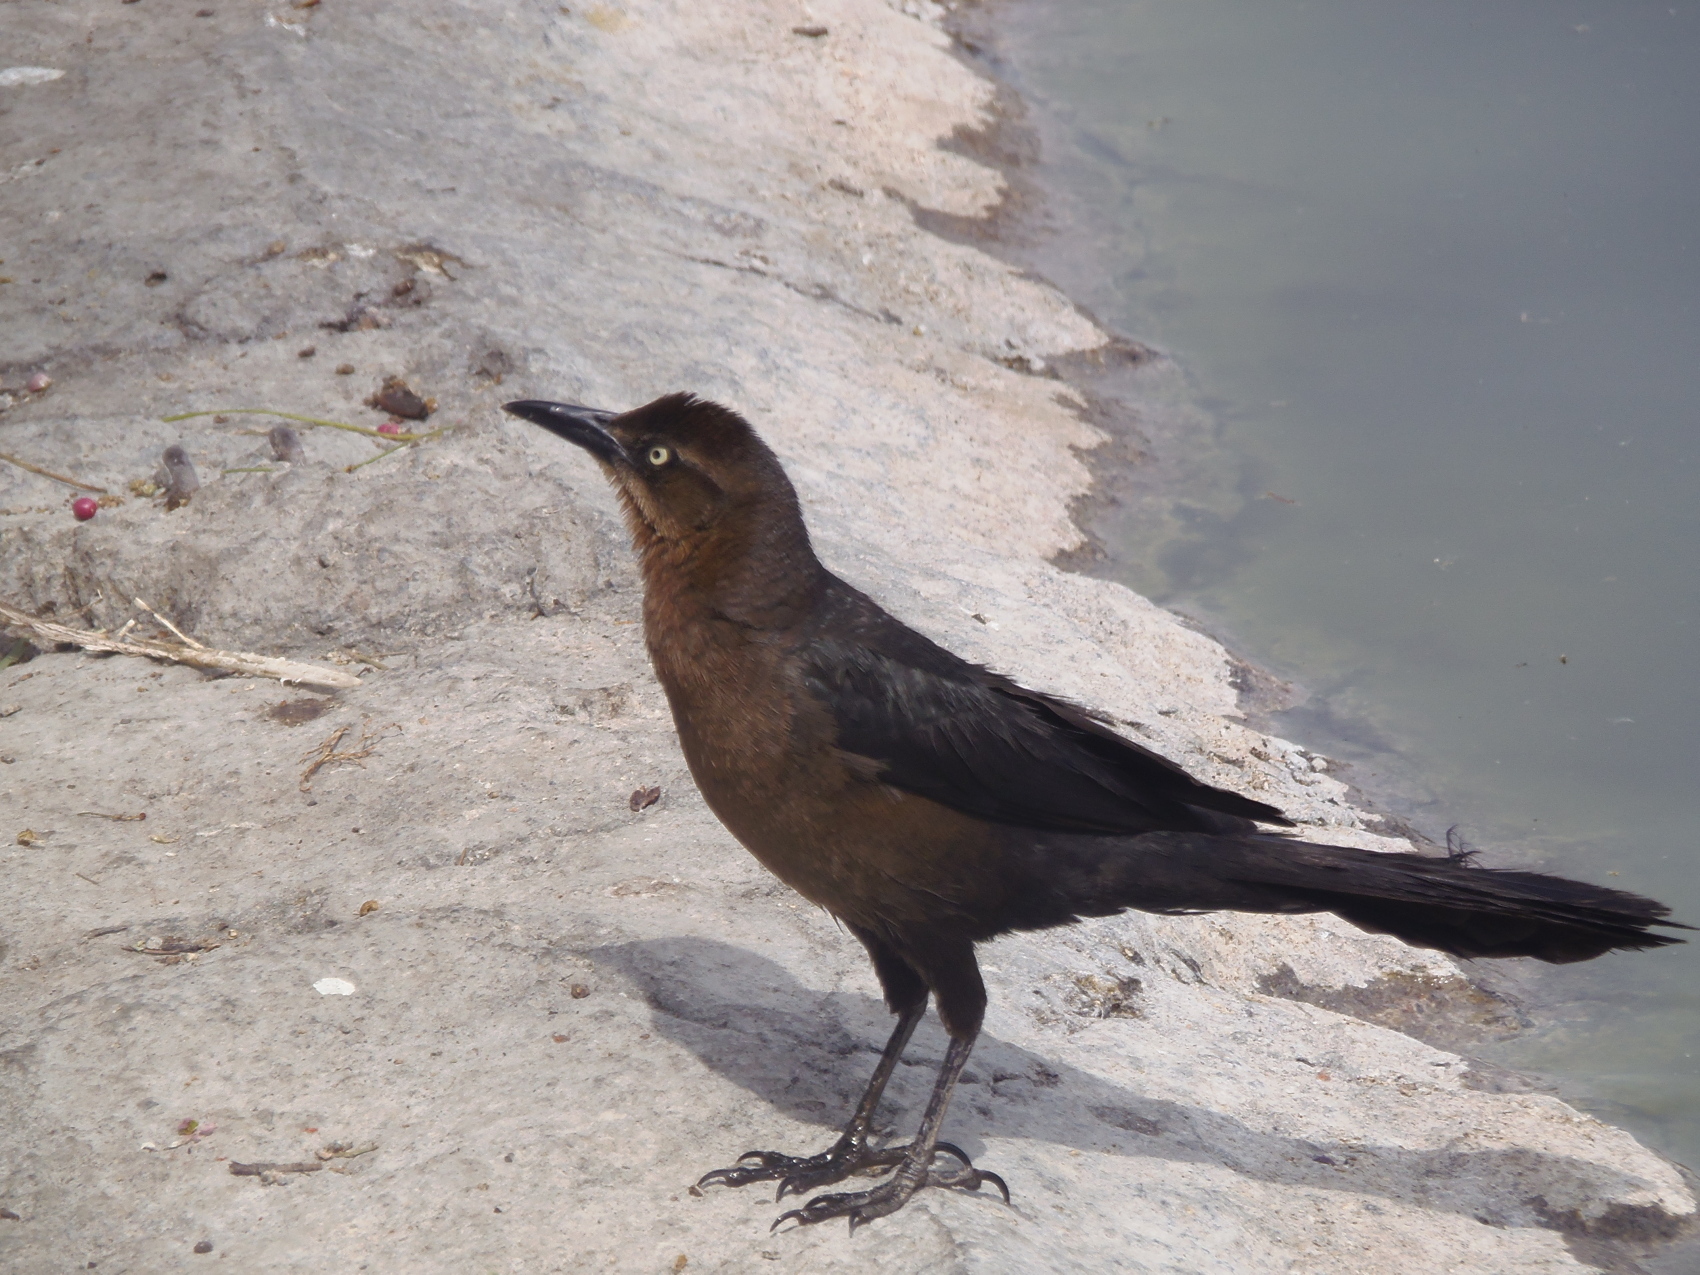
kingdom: Animalia
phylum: Chordata
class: Aves
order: Passeriformes
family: Icteridae
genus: Quiscalus
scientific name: Quiscalus mexicanus
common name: Great-tailed grackle
